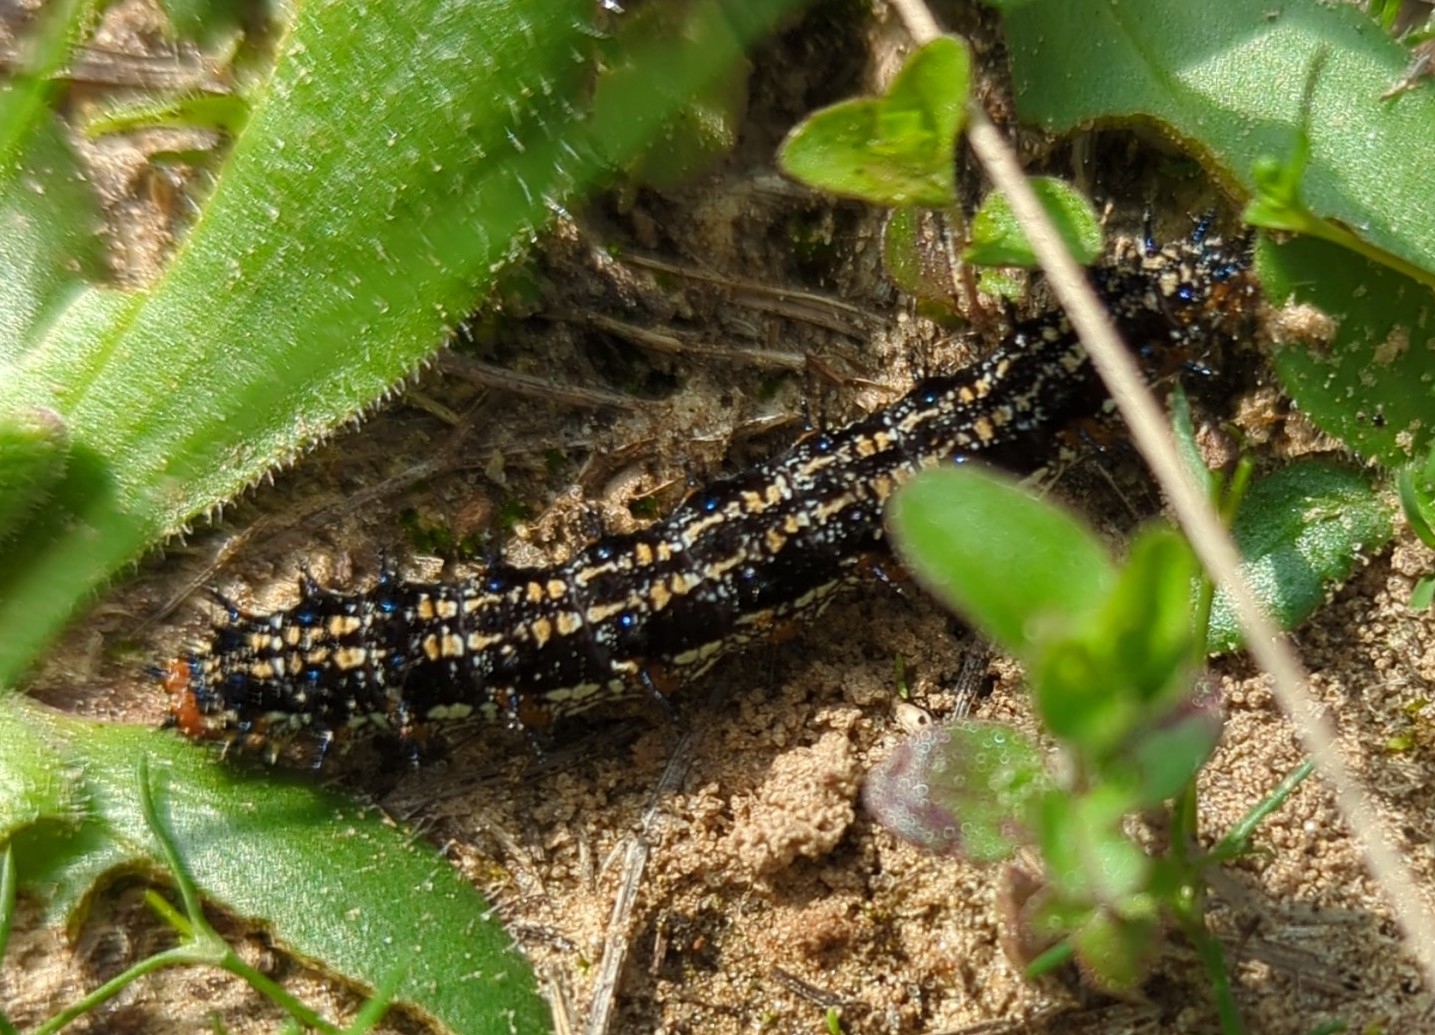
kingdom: Animalia
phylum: Arthropoda
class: Insecta
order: Lepidoptera
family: Nymphalidae
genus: Junonia
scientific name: Junonia coenia
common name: Common buckeye
